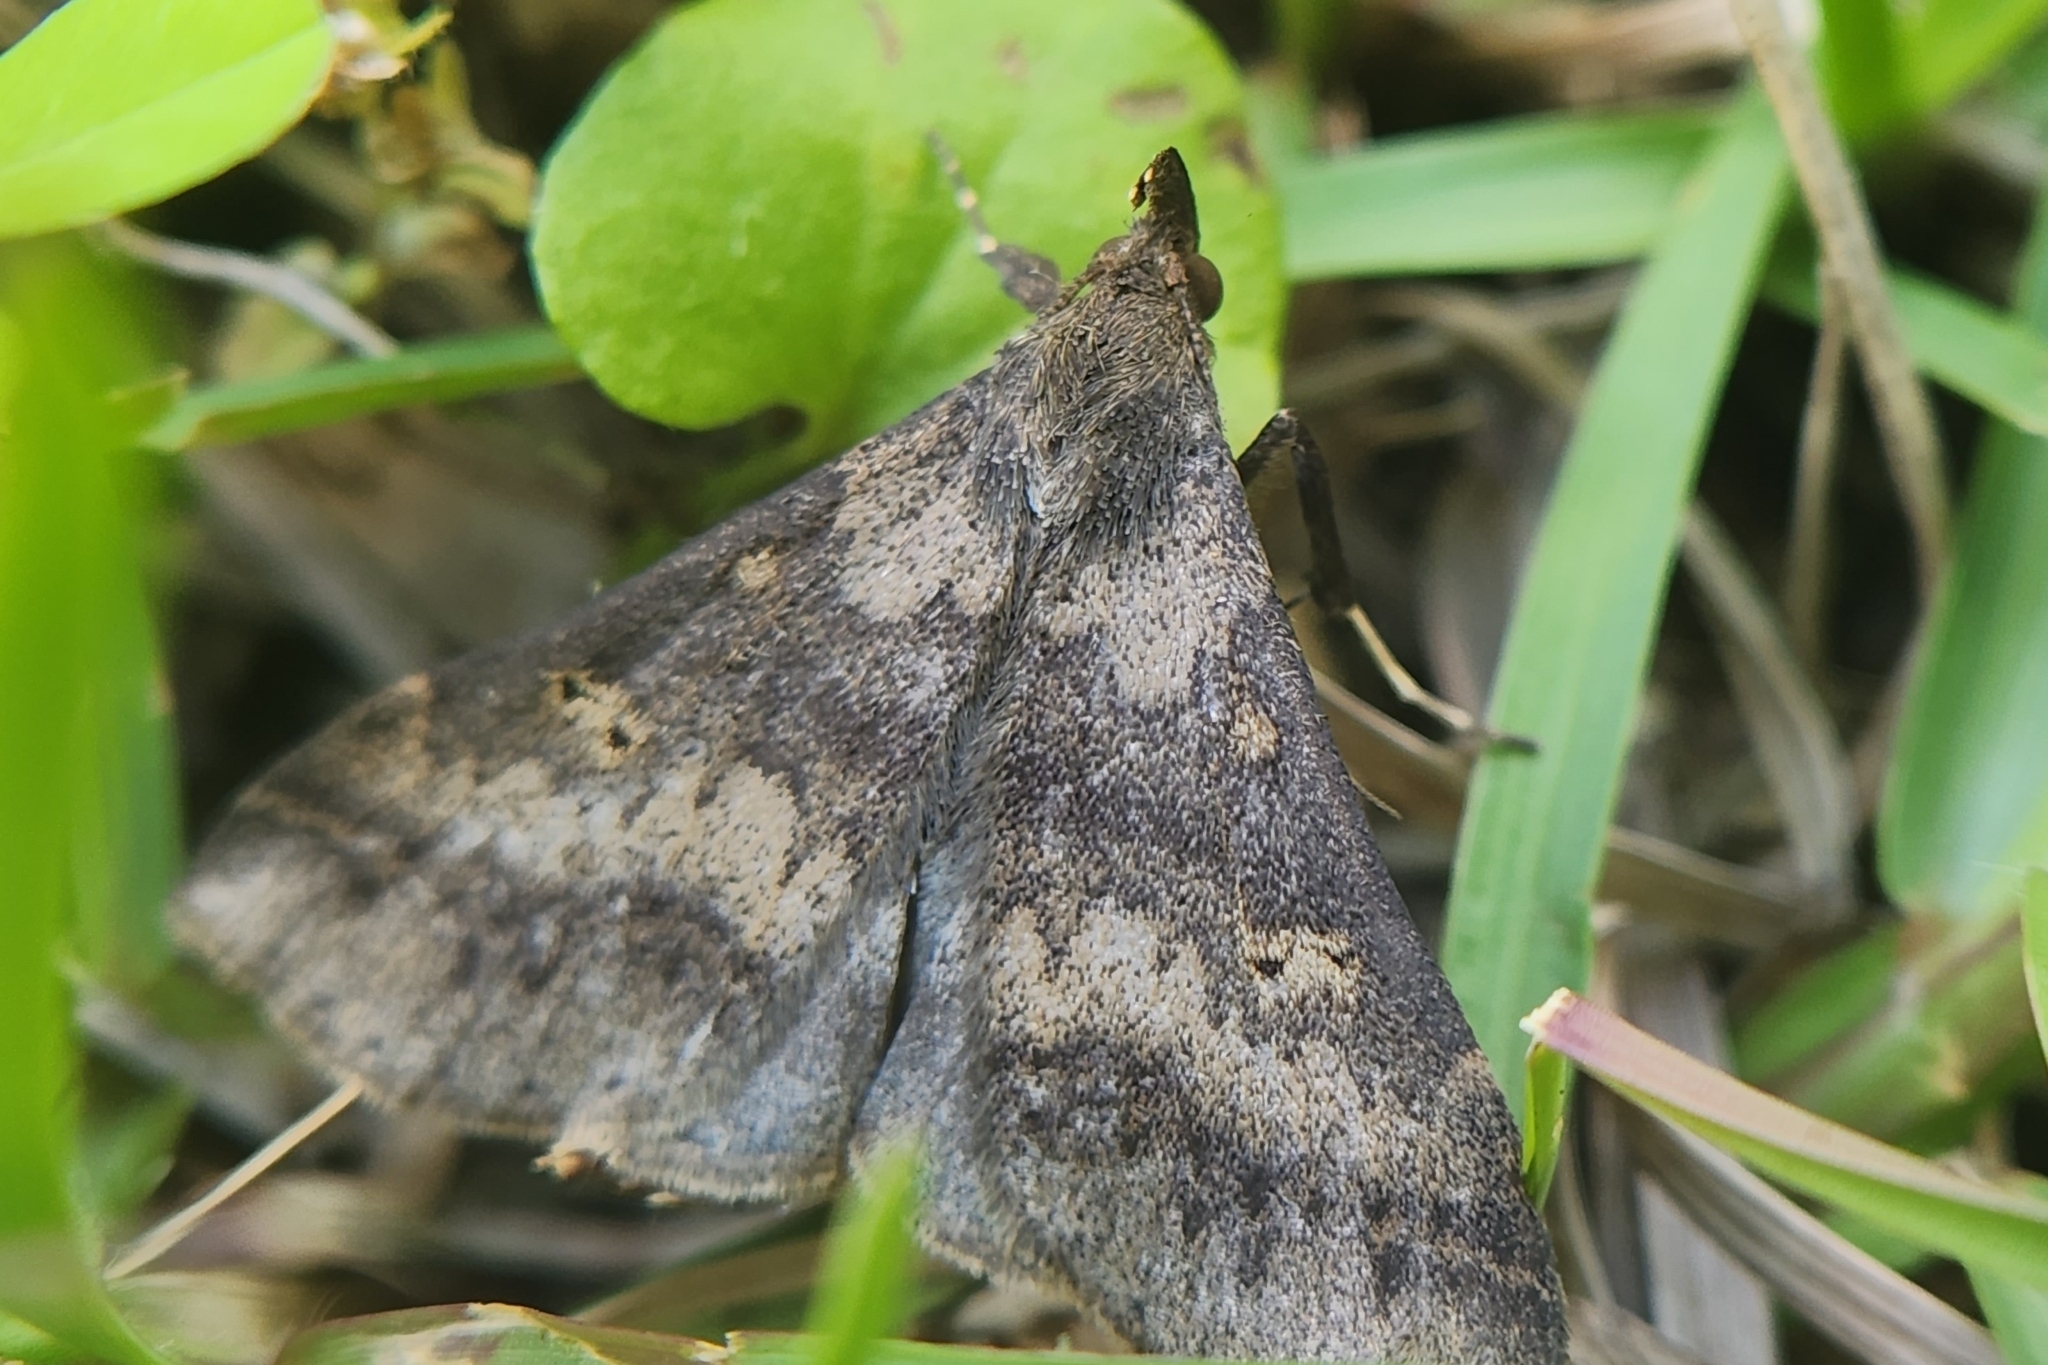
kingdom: Animalia
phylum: Arthropoda
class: Insecta
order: Lepidoptera
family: Erebidae
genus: Renia
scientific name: Renia discoloralis
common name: Discolored renia moth
